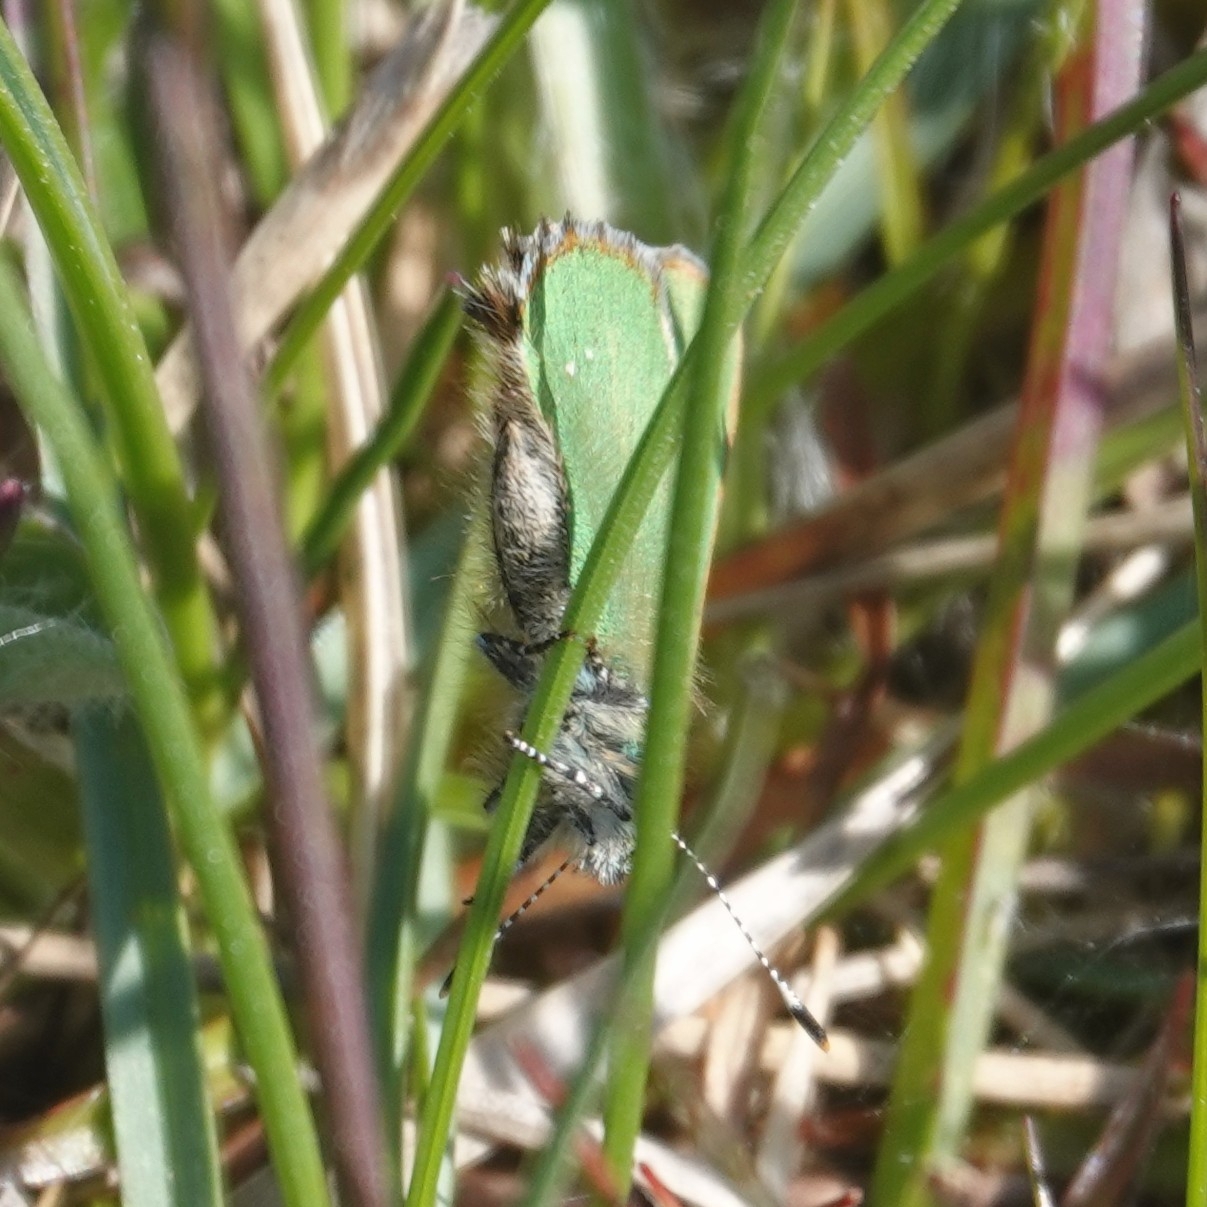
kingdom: Animalia
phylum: Arthropoda
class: Insecta
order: Lepidoptera
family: Lycaenidae
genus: Callophrys
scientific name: Callophrys rubi
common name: Green hairstreak
